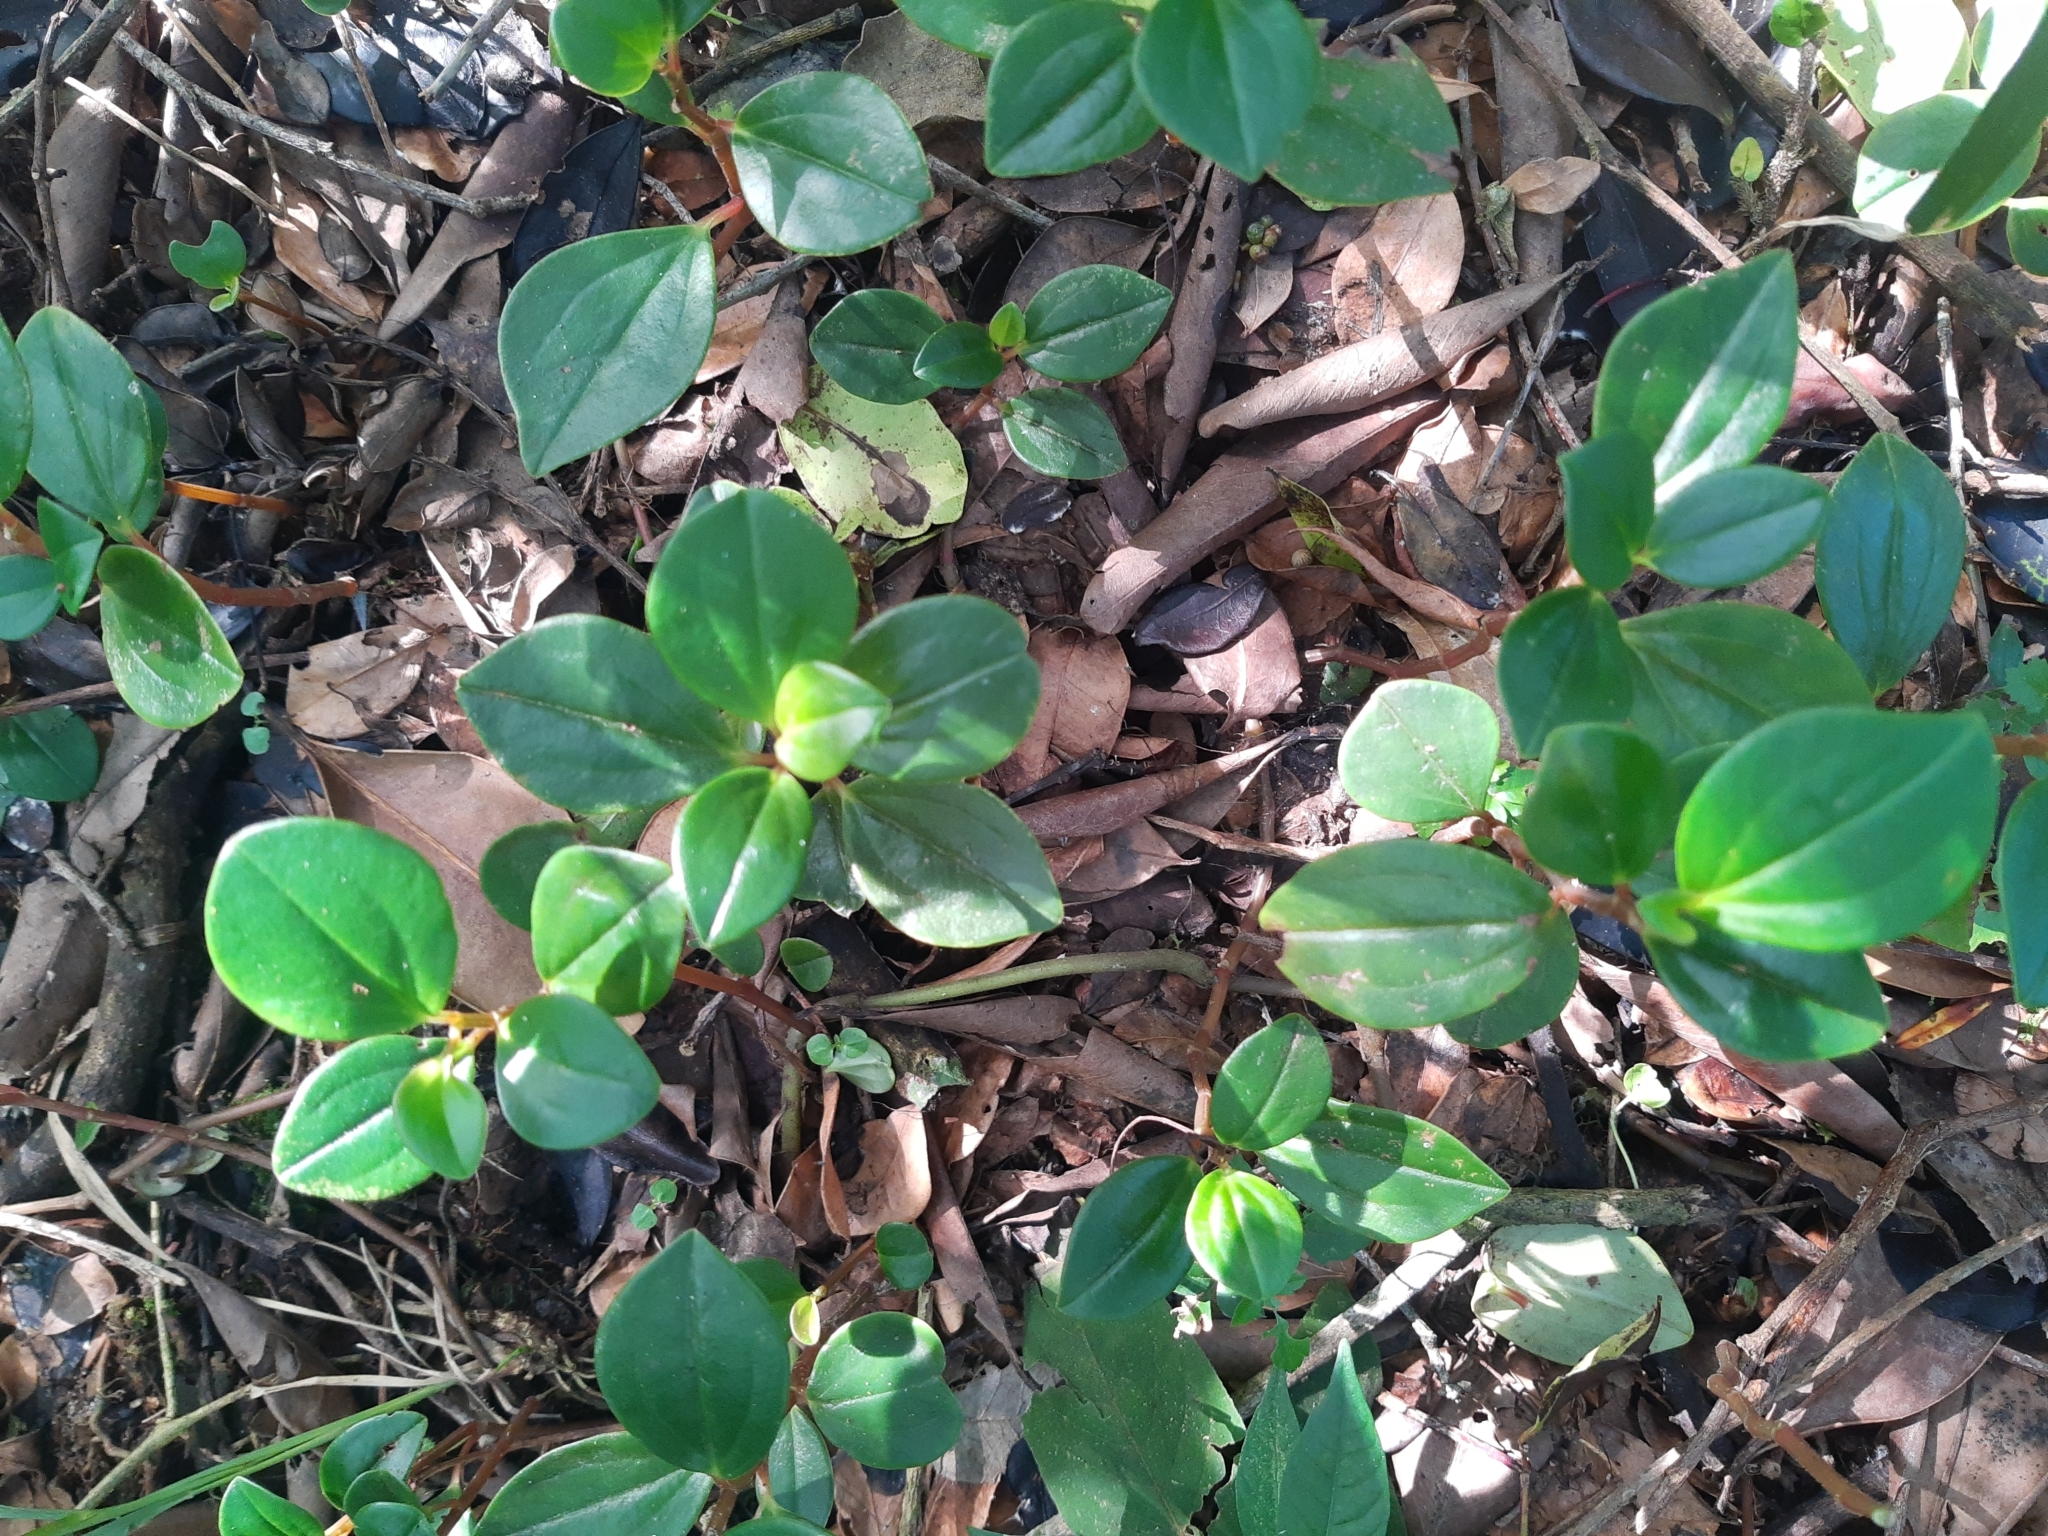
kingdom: Plantae
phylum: Tracheophyta
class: Magnoliopsida
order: Piperales
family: Piperaceae
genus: Peperomia
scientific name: Peperomia glabella
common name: Cypress peperomia
